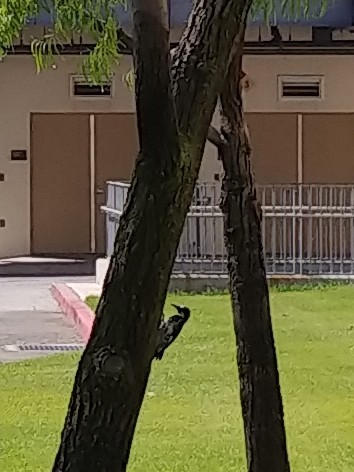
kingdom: Animalia
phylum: Chordata
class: Aves
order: Piciformes
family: Picidae
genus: Melanerpes
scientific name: Melanerpes formicivorus
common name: Acorn woodpecker
